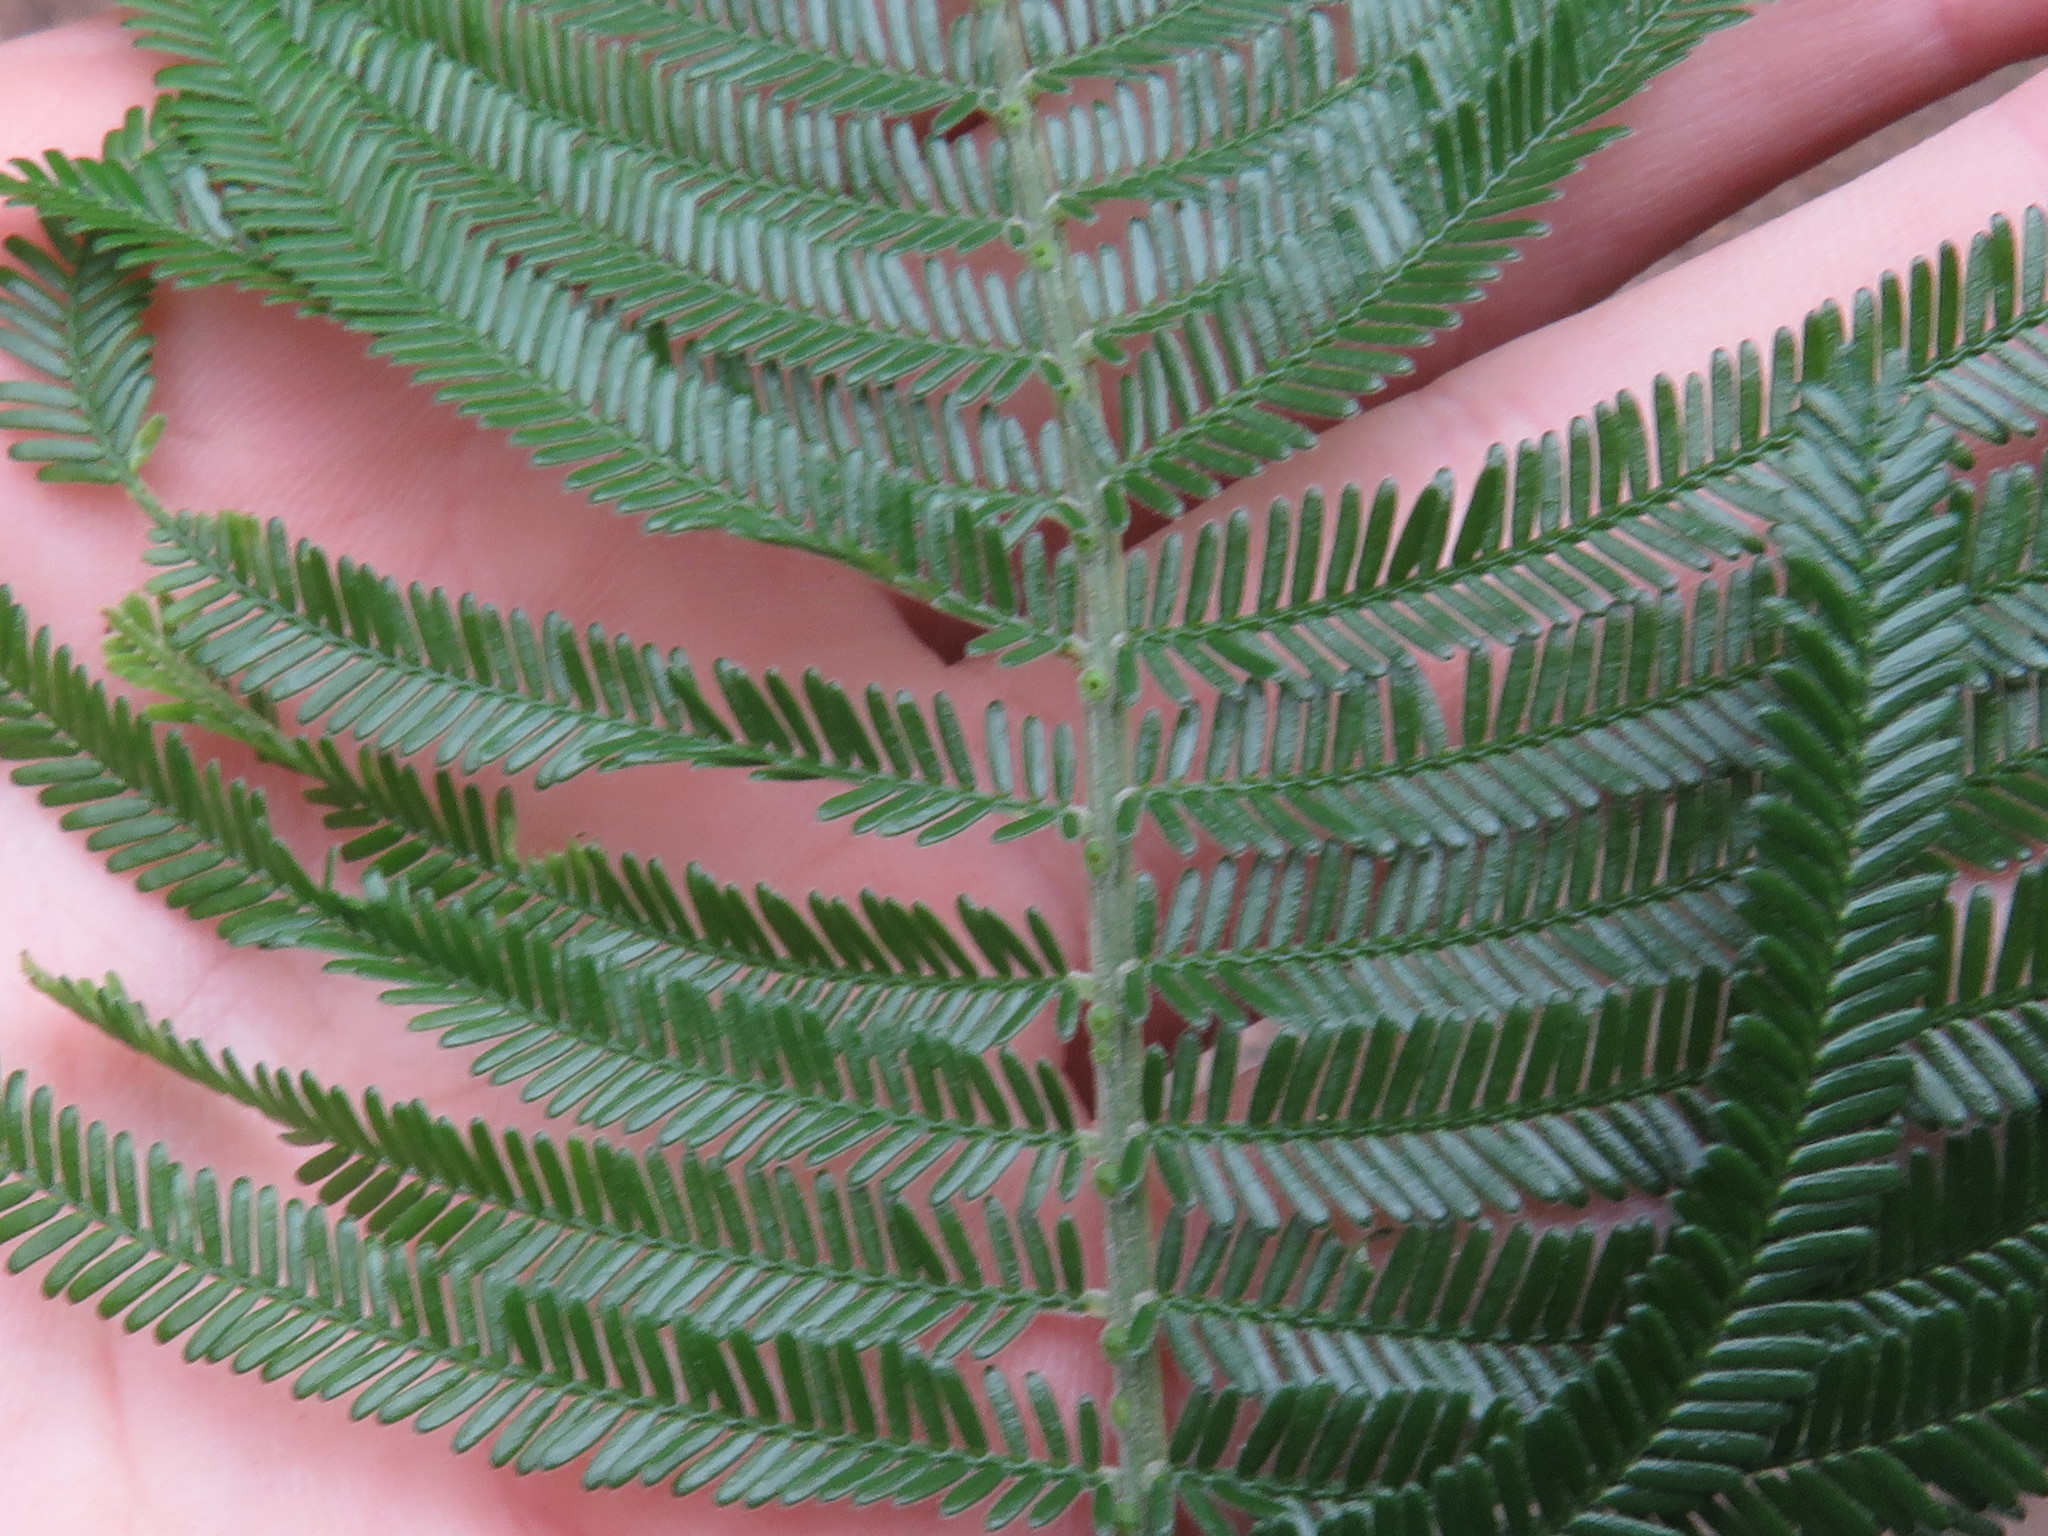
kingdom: Plantae
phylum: Tracheophyta
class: Magnoliopsida
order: Fabales
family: Fabaceae
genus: Acacia
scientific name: Acacia mearnsii
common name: Black wattle
